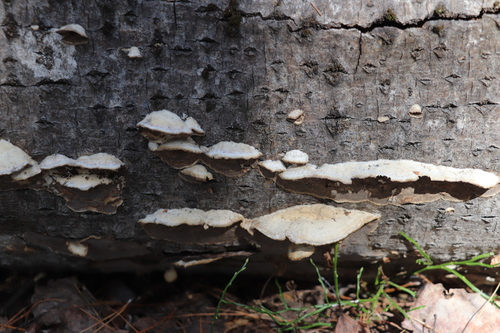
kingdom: Fungi
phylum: Basidiomycota
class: Agaricomycetes
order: Polyporales
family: Phanerochaetaceae
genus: Bjerkandera
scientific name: Bjerkandera adusta
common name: Smoky bracket
